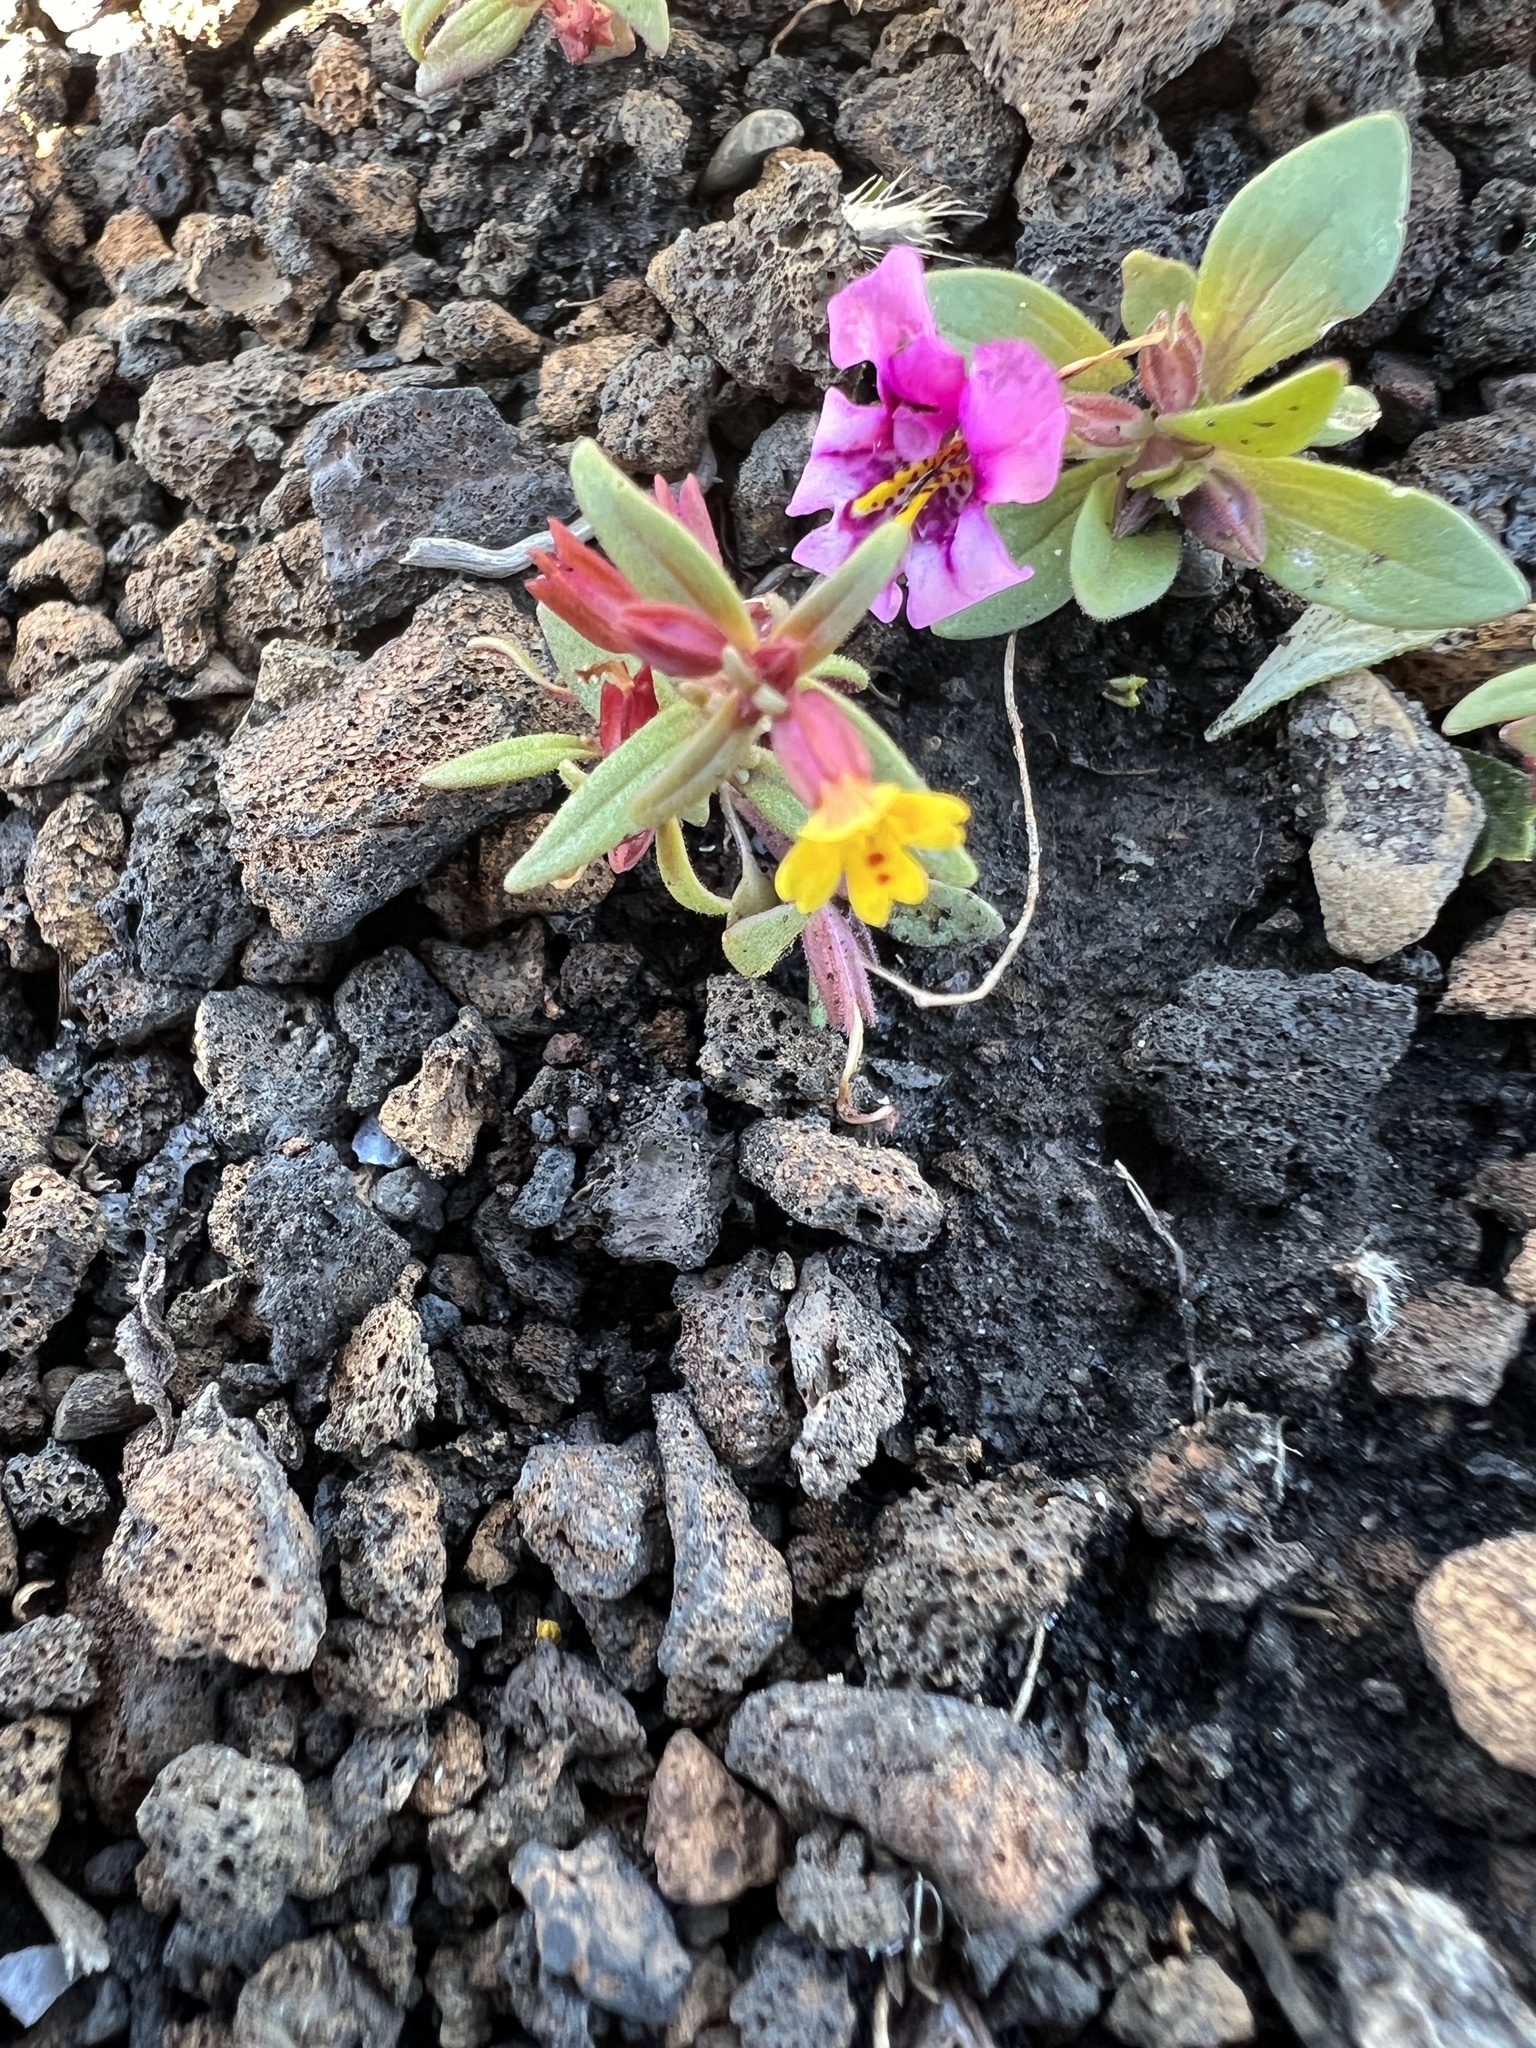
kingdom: Plantae
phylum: Tracheophyta
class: Magnoliopsida
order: Lamiales
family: Phrymaceae
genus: Erythranthe
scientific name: Erythranthe suksdorfii
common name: Suksdorf's monkeyflower
